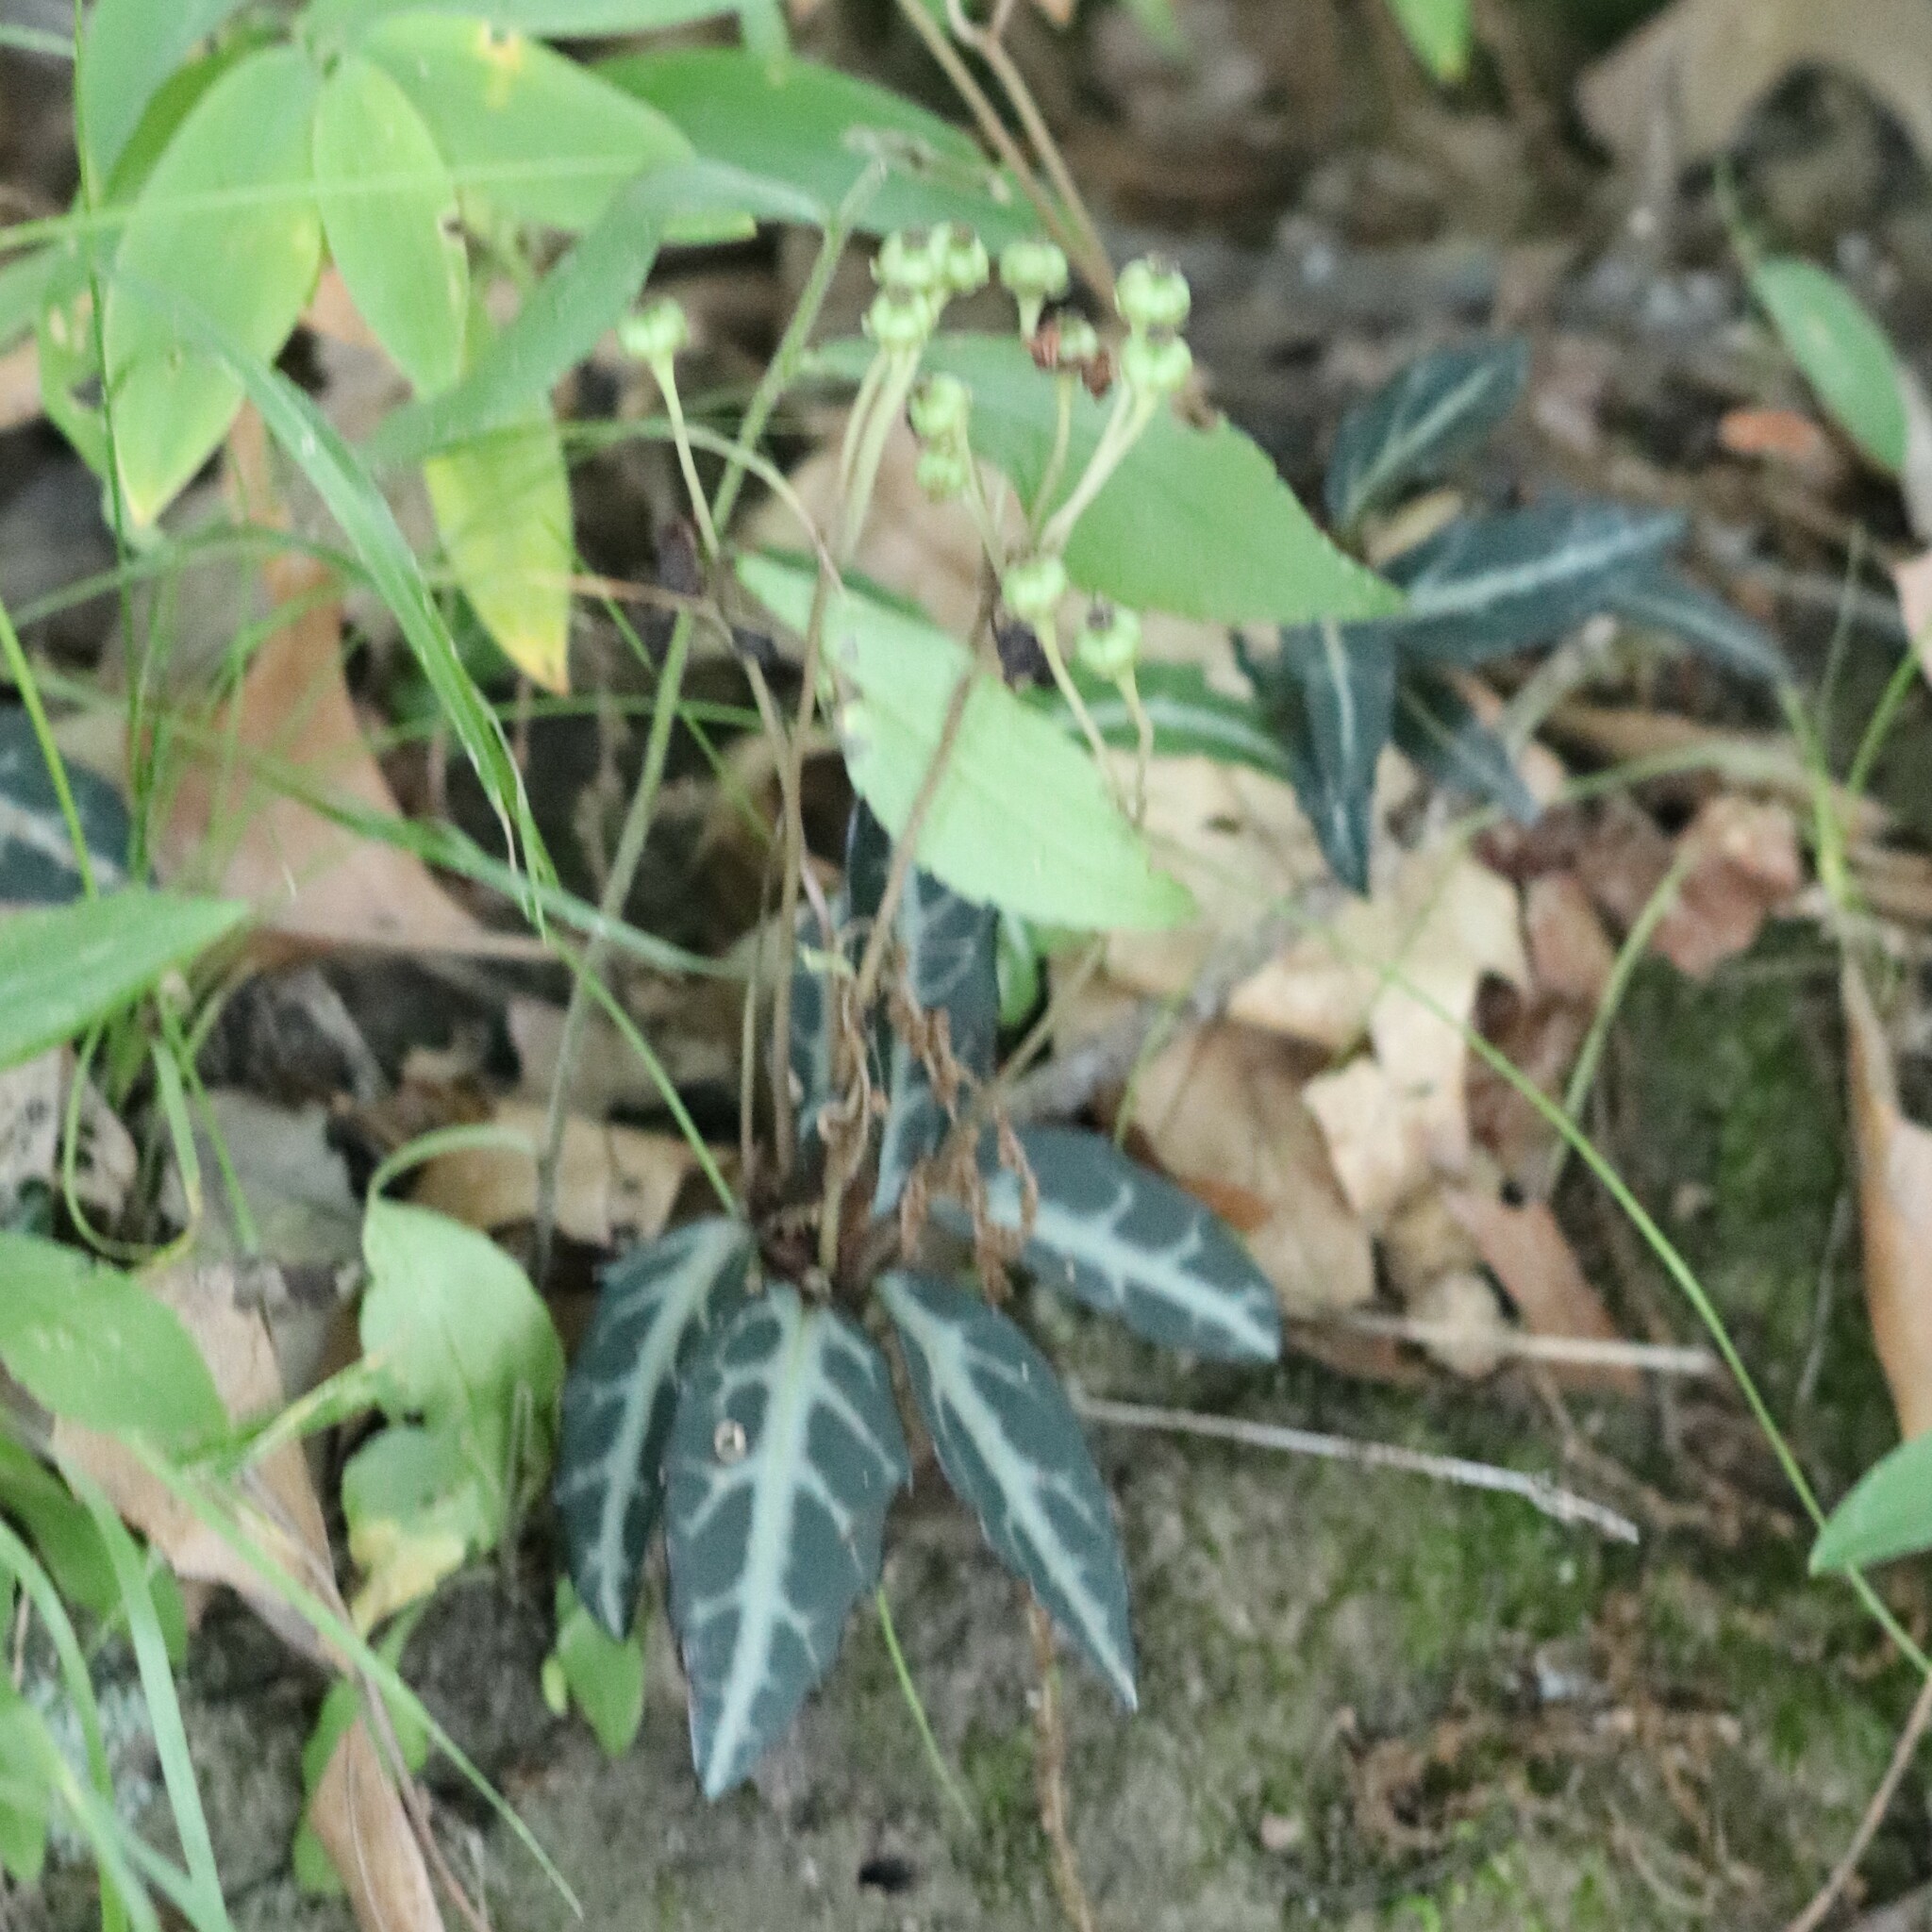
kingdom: Plantae
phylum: Tracheophyta
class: Magnoliopsida
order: Ericales
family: Ericaceae
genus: Chimaphila
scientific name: Chimaphila maculata
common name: Spotted pipsissewa
